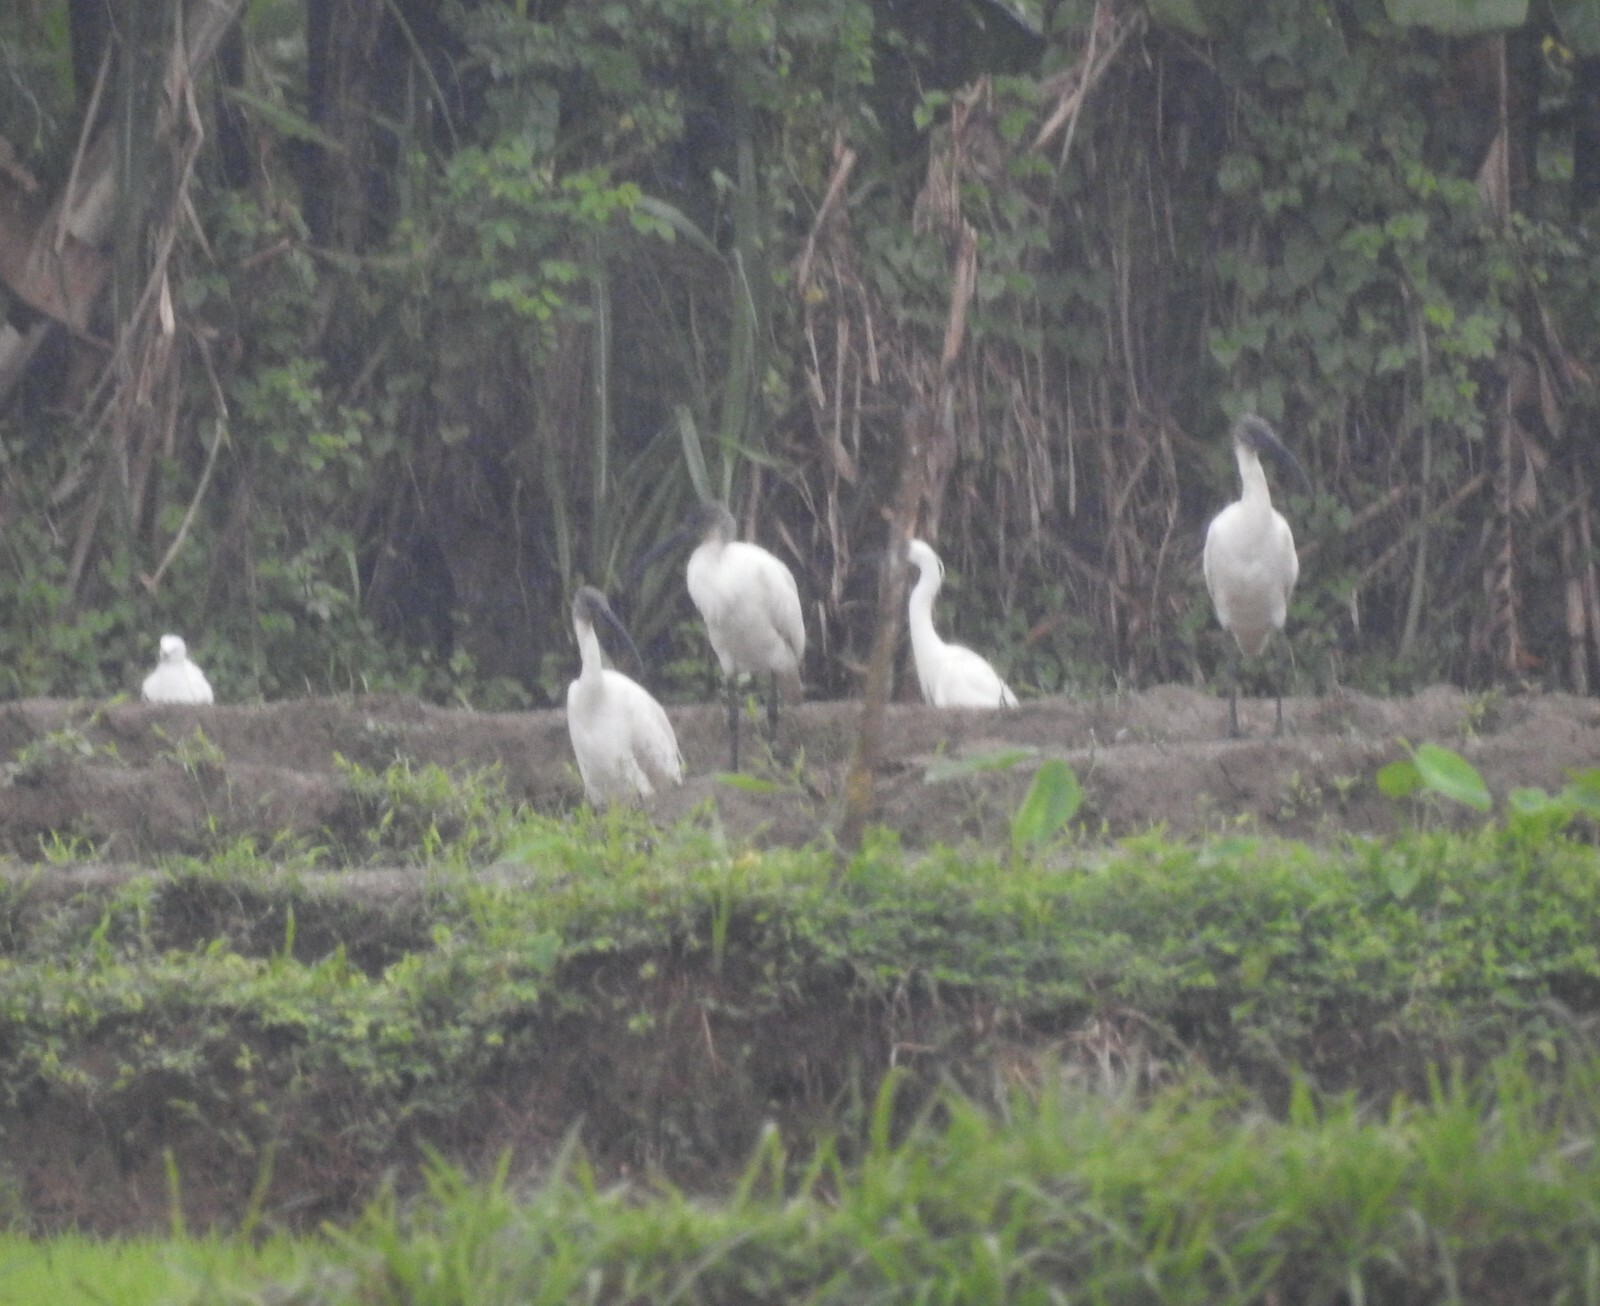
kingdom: Animalia
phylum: Chordata
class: Aves
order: Pelecaniformes
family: Threskiornithidae
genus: Threskiornis
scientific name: Threskiornis melanocephalus
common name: Black-headed ibis
